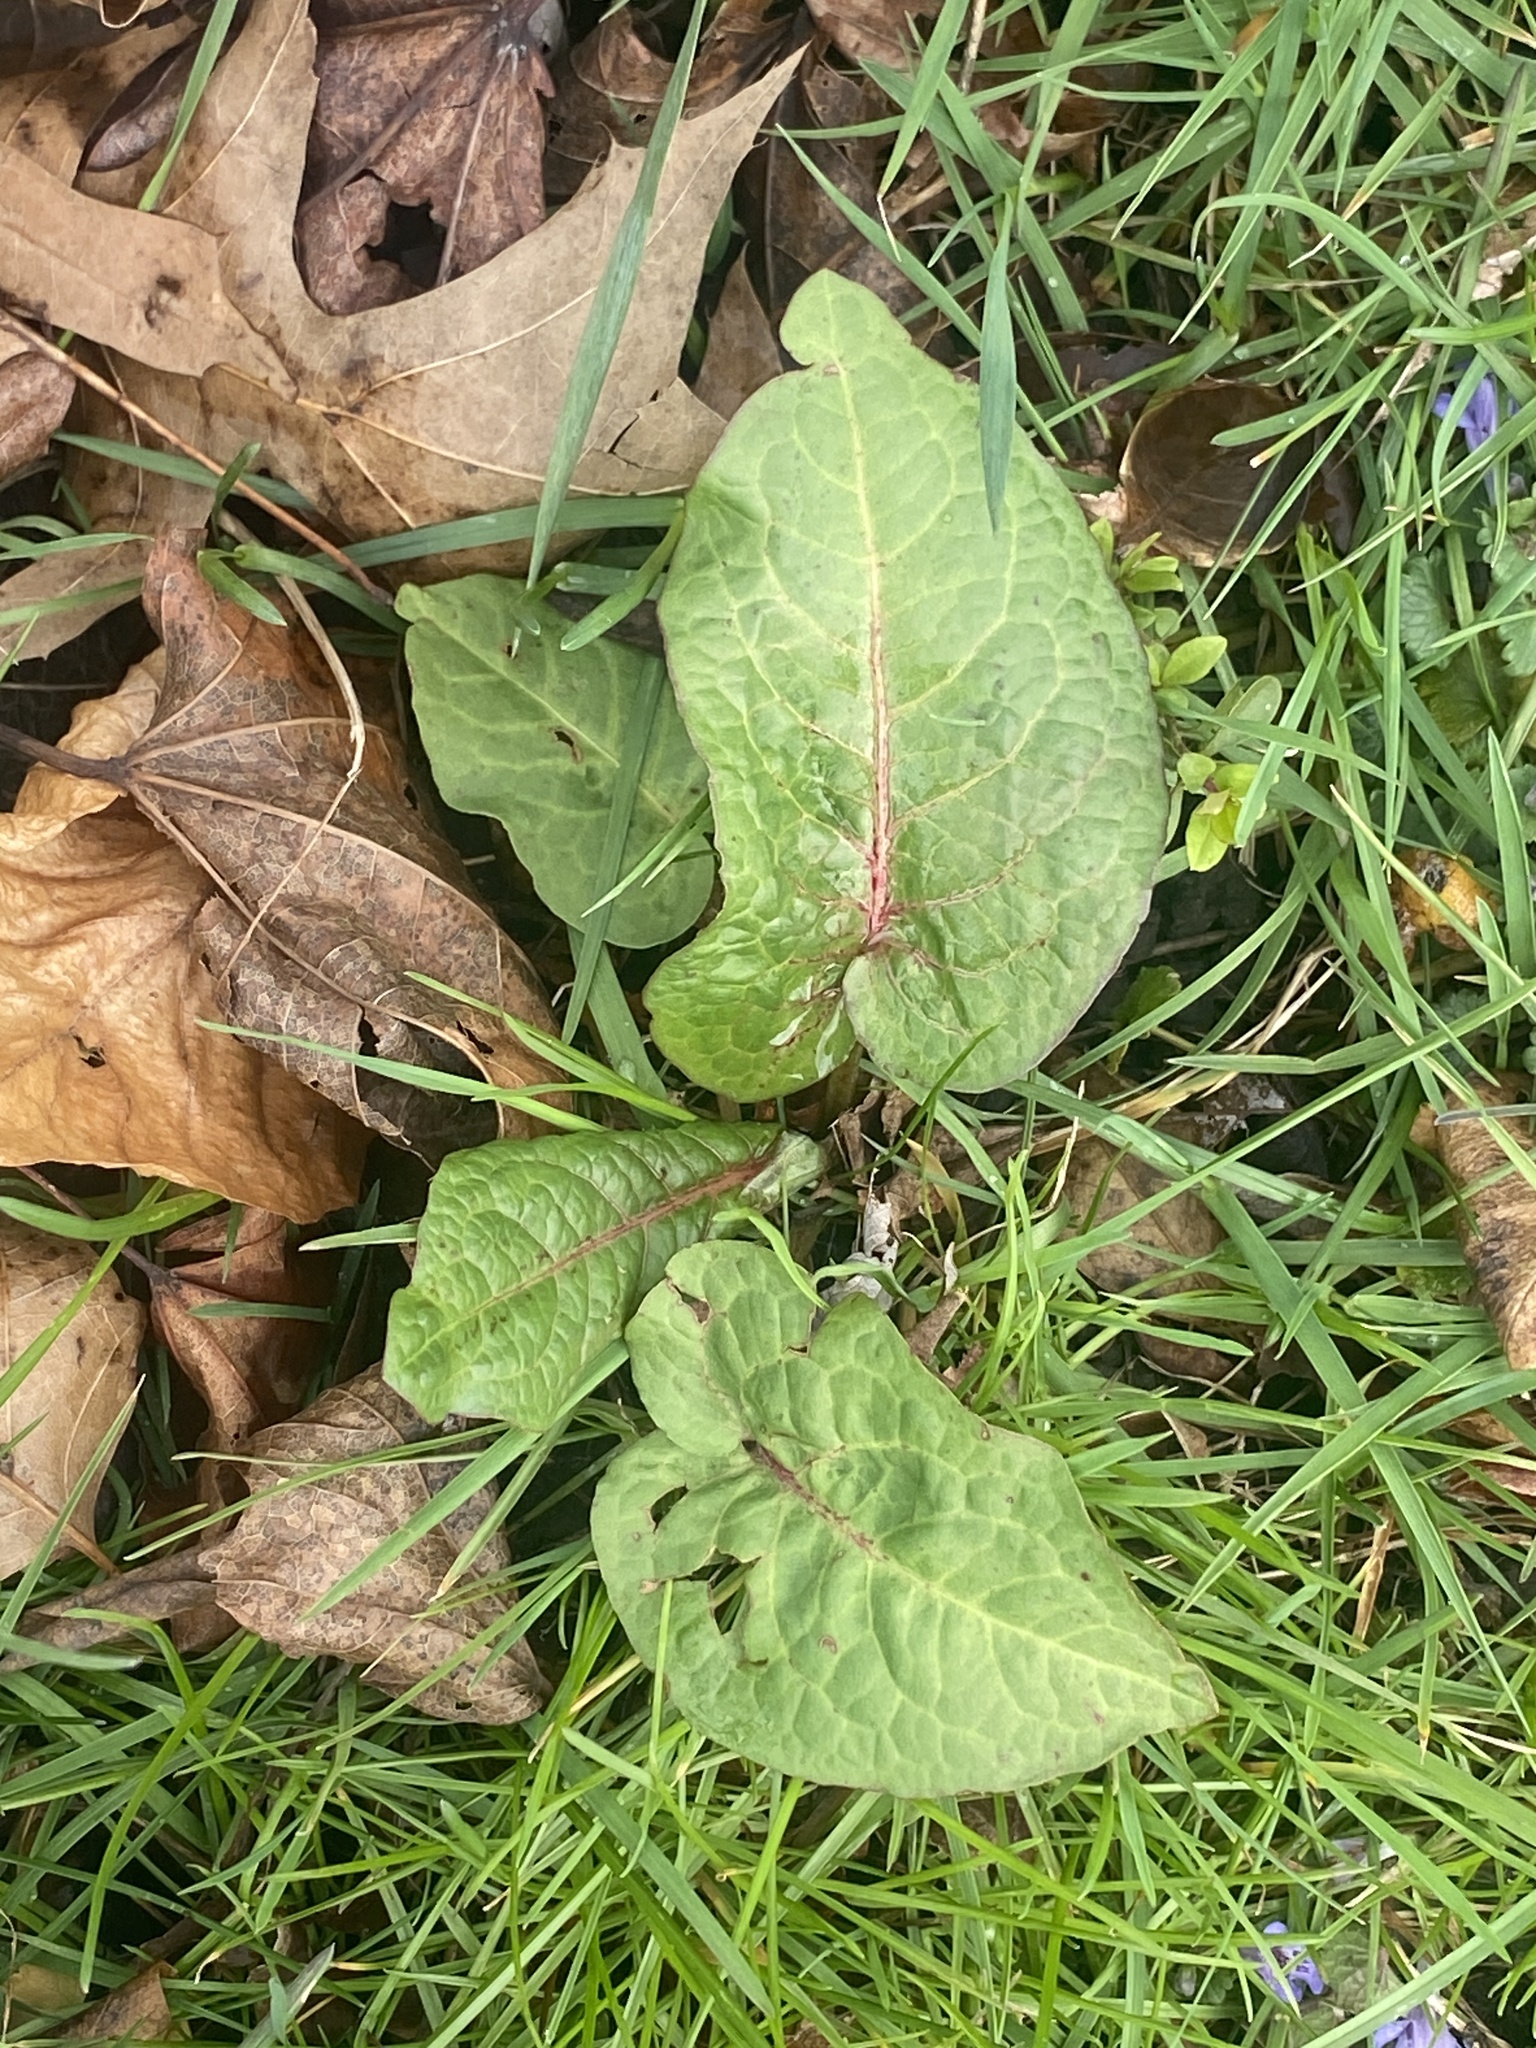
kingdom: Plantae
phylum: Tracheophyta
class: Magnoliopsida
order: Caryophyllales
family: Polygonaceae
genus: Rumex
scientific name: Rumex obtusifolius
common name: Bitter dock
